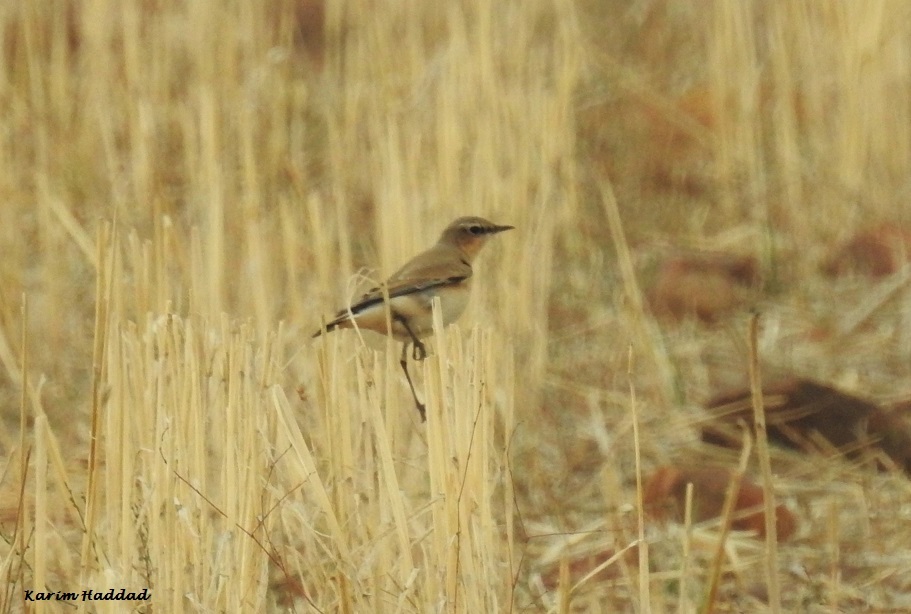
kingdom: Animalia
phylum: Chordata
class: Aves
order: Passeriformes
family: Muscicapidae
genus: Oenanthe
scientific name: Oenanthe oenanthe
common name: Northern wheatear
